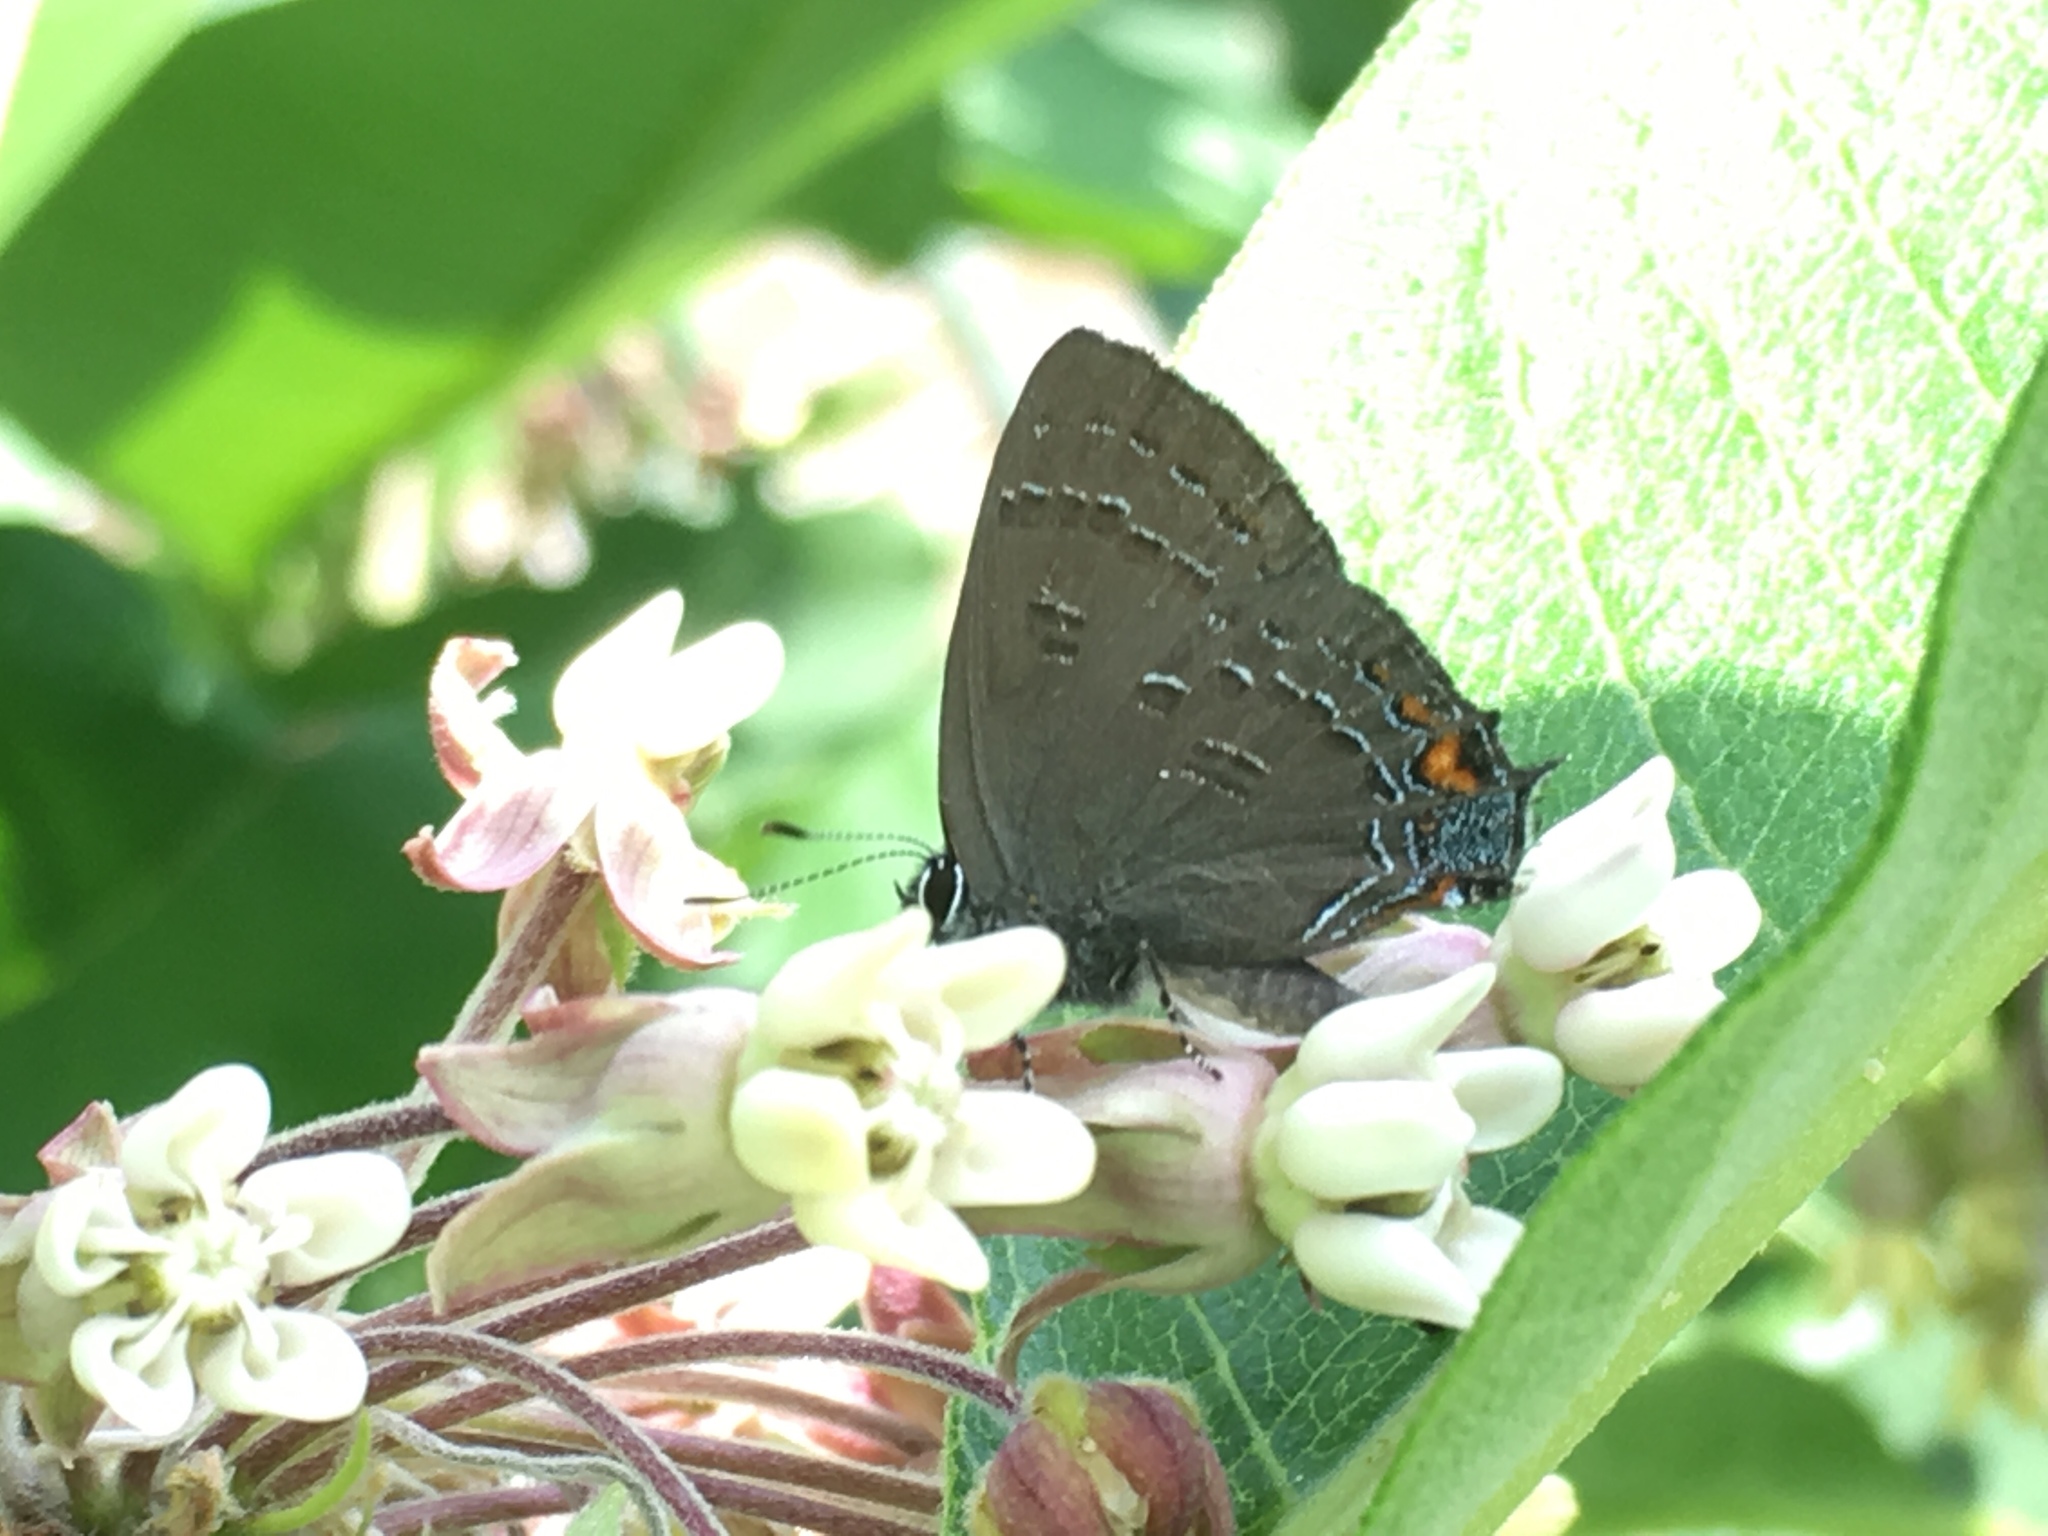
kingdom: Animalia
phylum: Arthropoda
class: Insecta
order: Lepidoptera
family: Lycaenidae
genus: Satyrium
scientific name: Satyrium calanus
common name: Banded hairstreak
